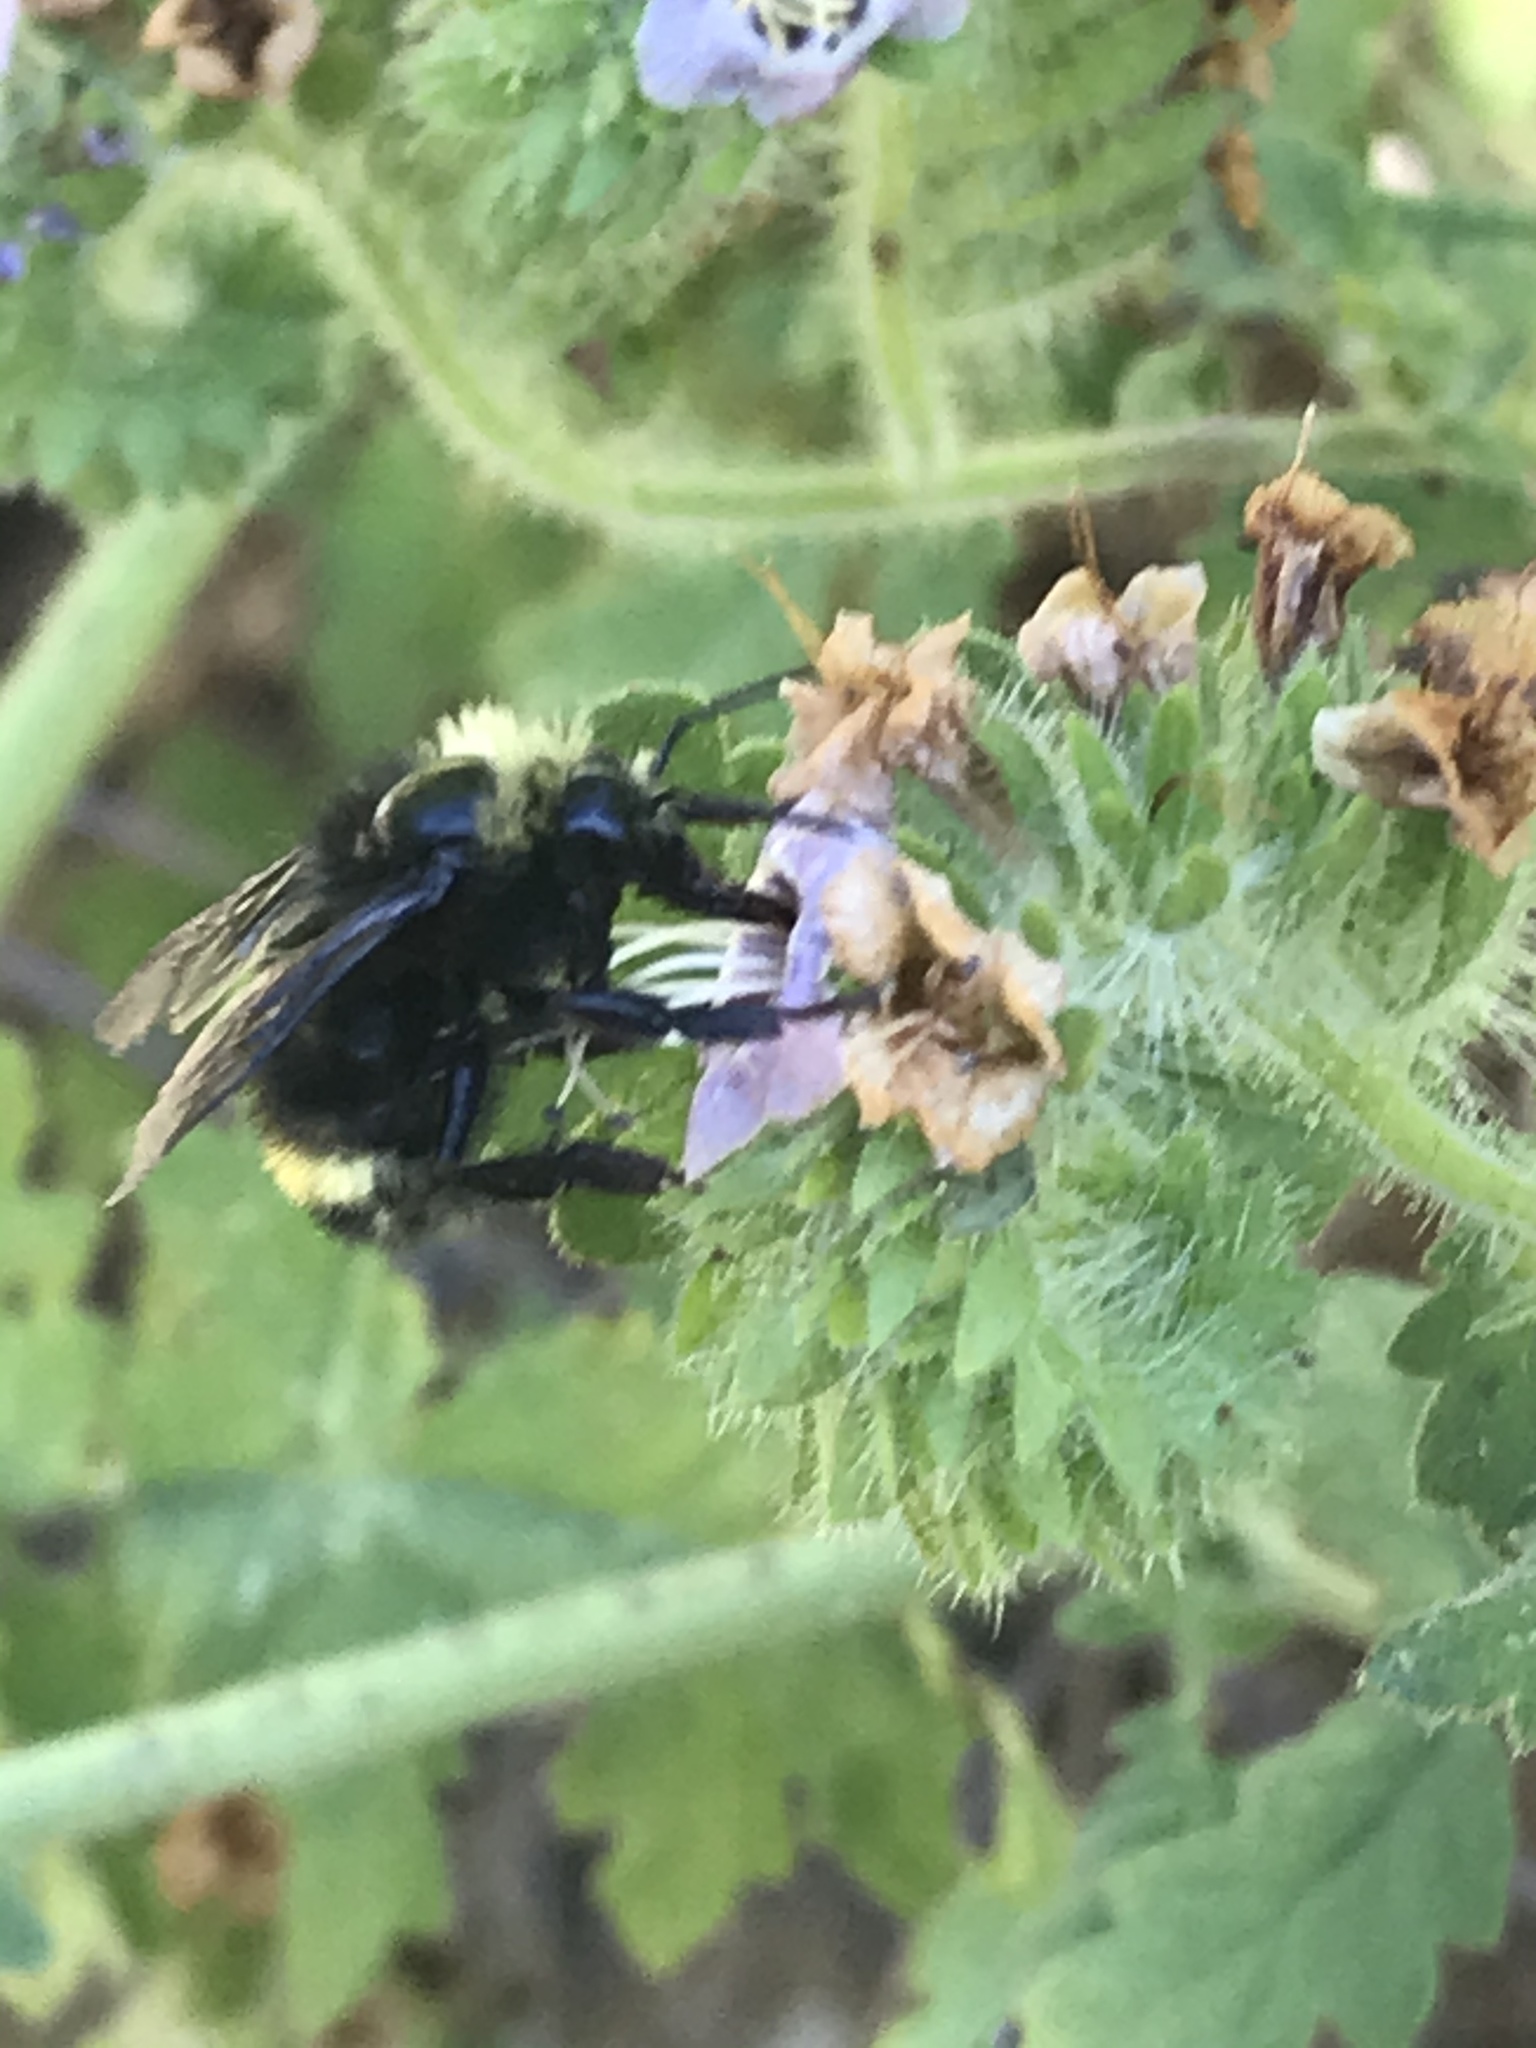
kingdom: Animalia
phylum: Arthropoda
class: Insecta
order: Hymenoptera
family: Apidae
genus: Bombus
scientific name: Bombus vandykei
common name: Van dyke bumble bee
